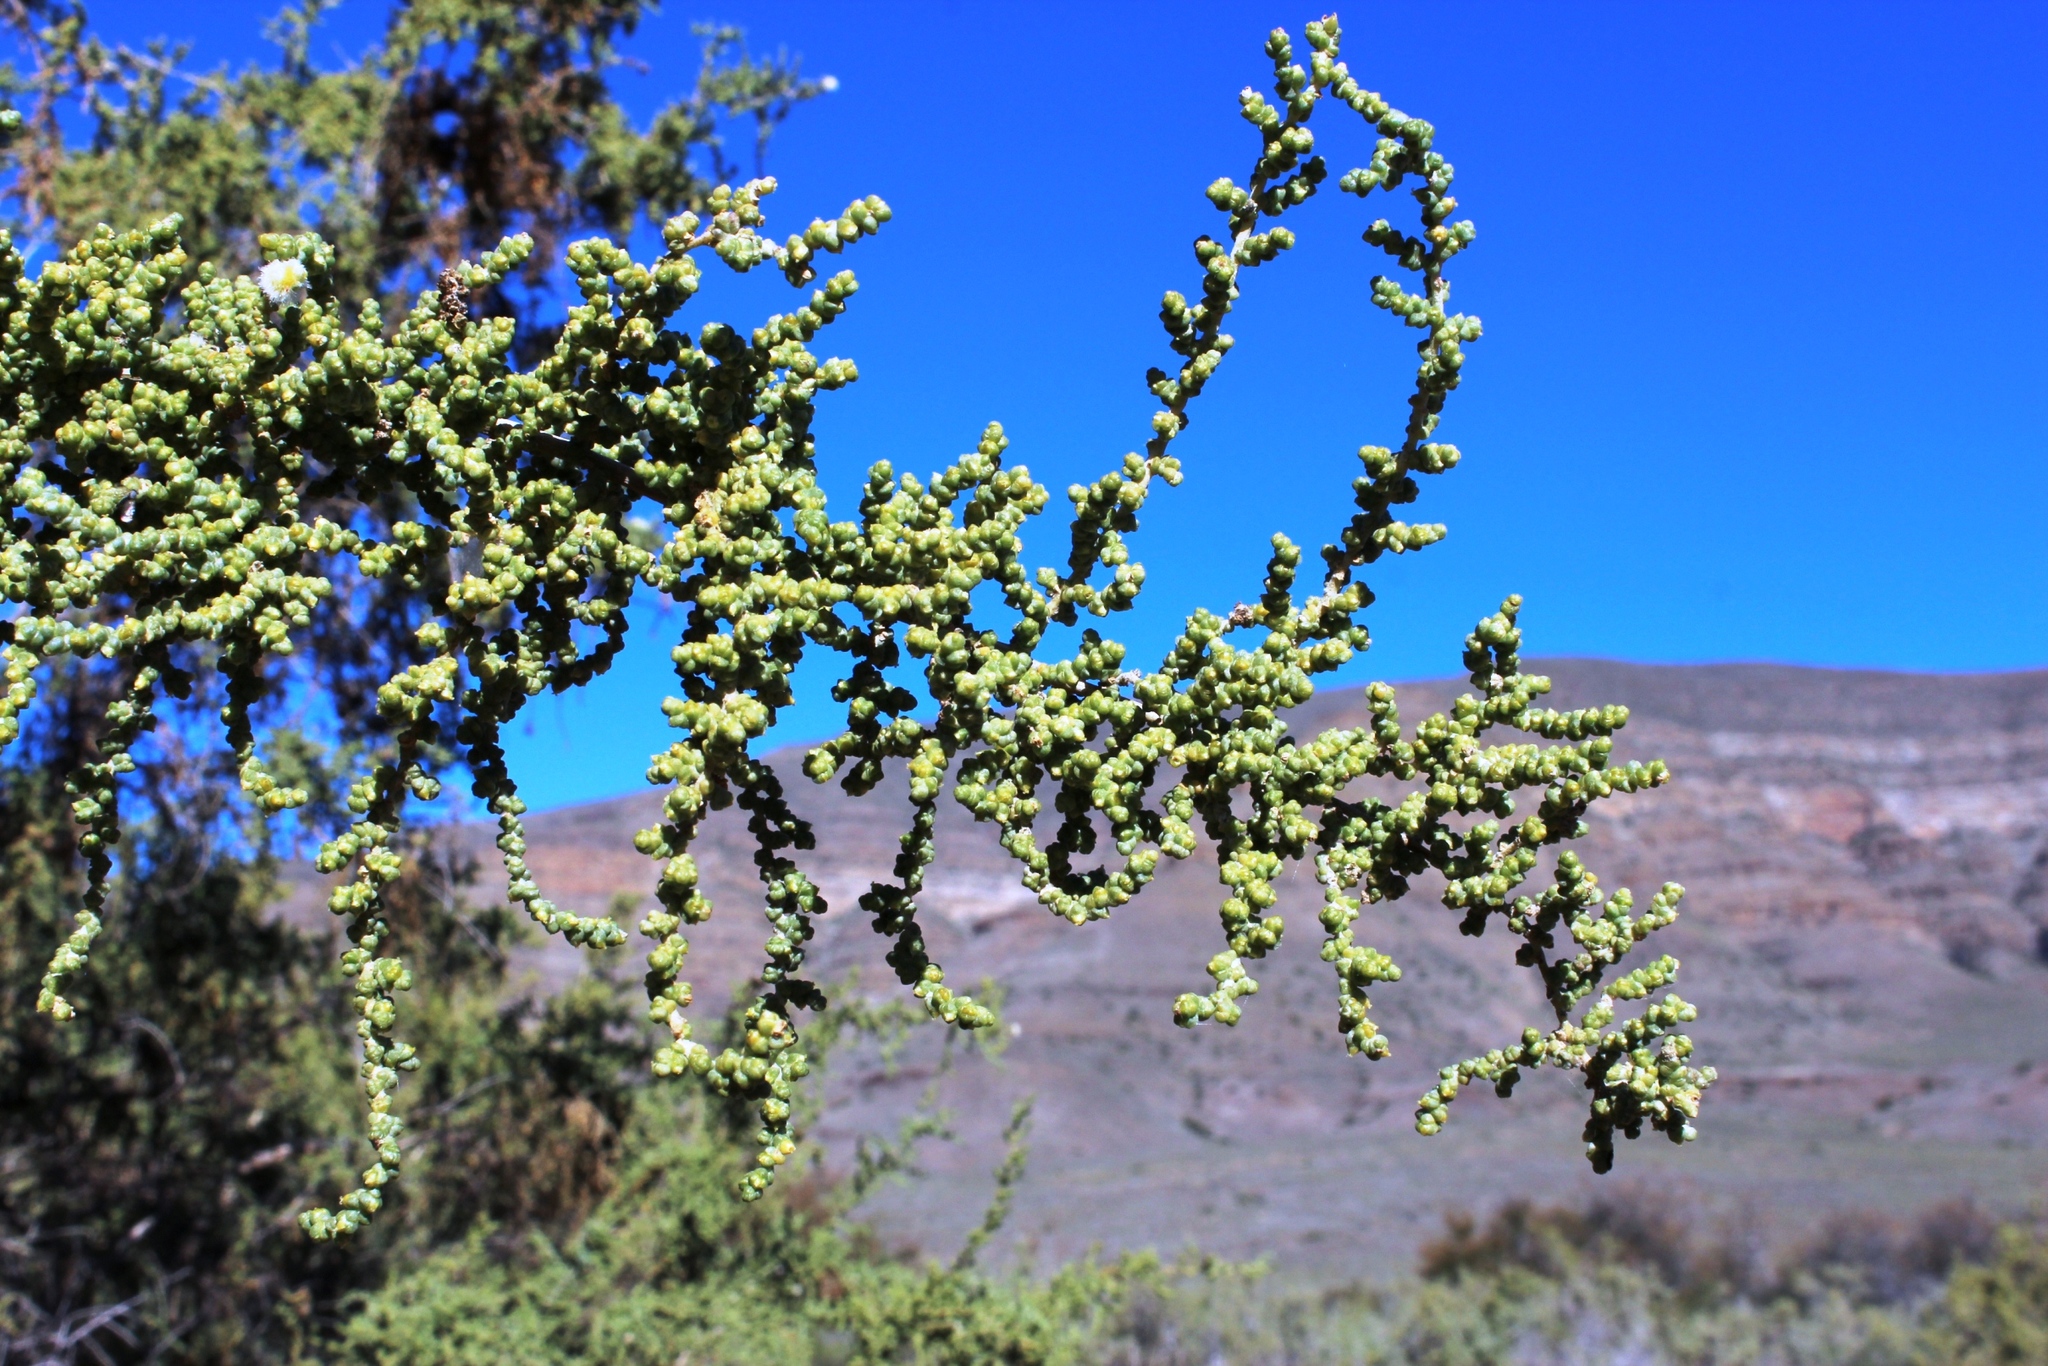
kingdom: Plantae
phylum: Tracheophyta
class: Magnoliopsida
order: Caryophyllales
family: Amaranthaceae
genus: Caroxylon
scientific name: Caroxylon aphyllum
